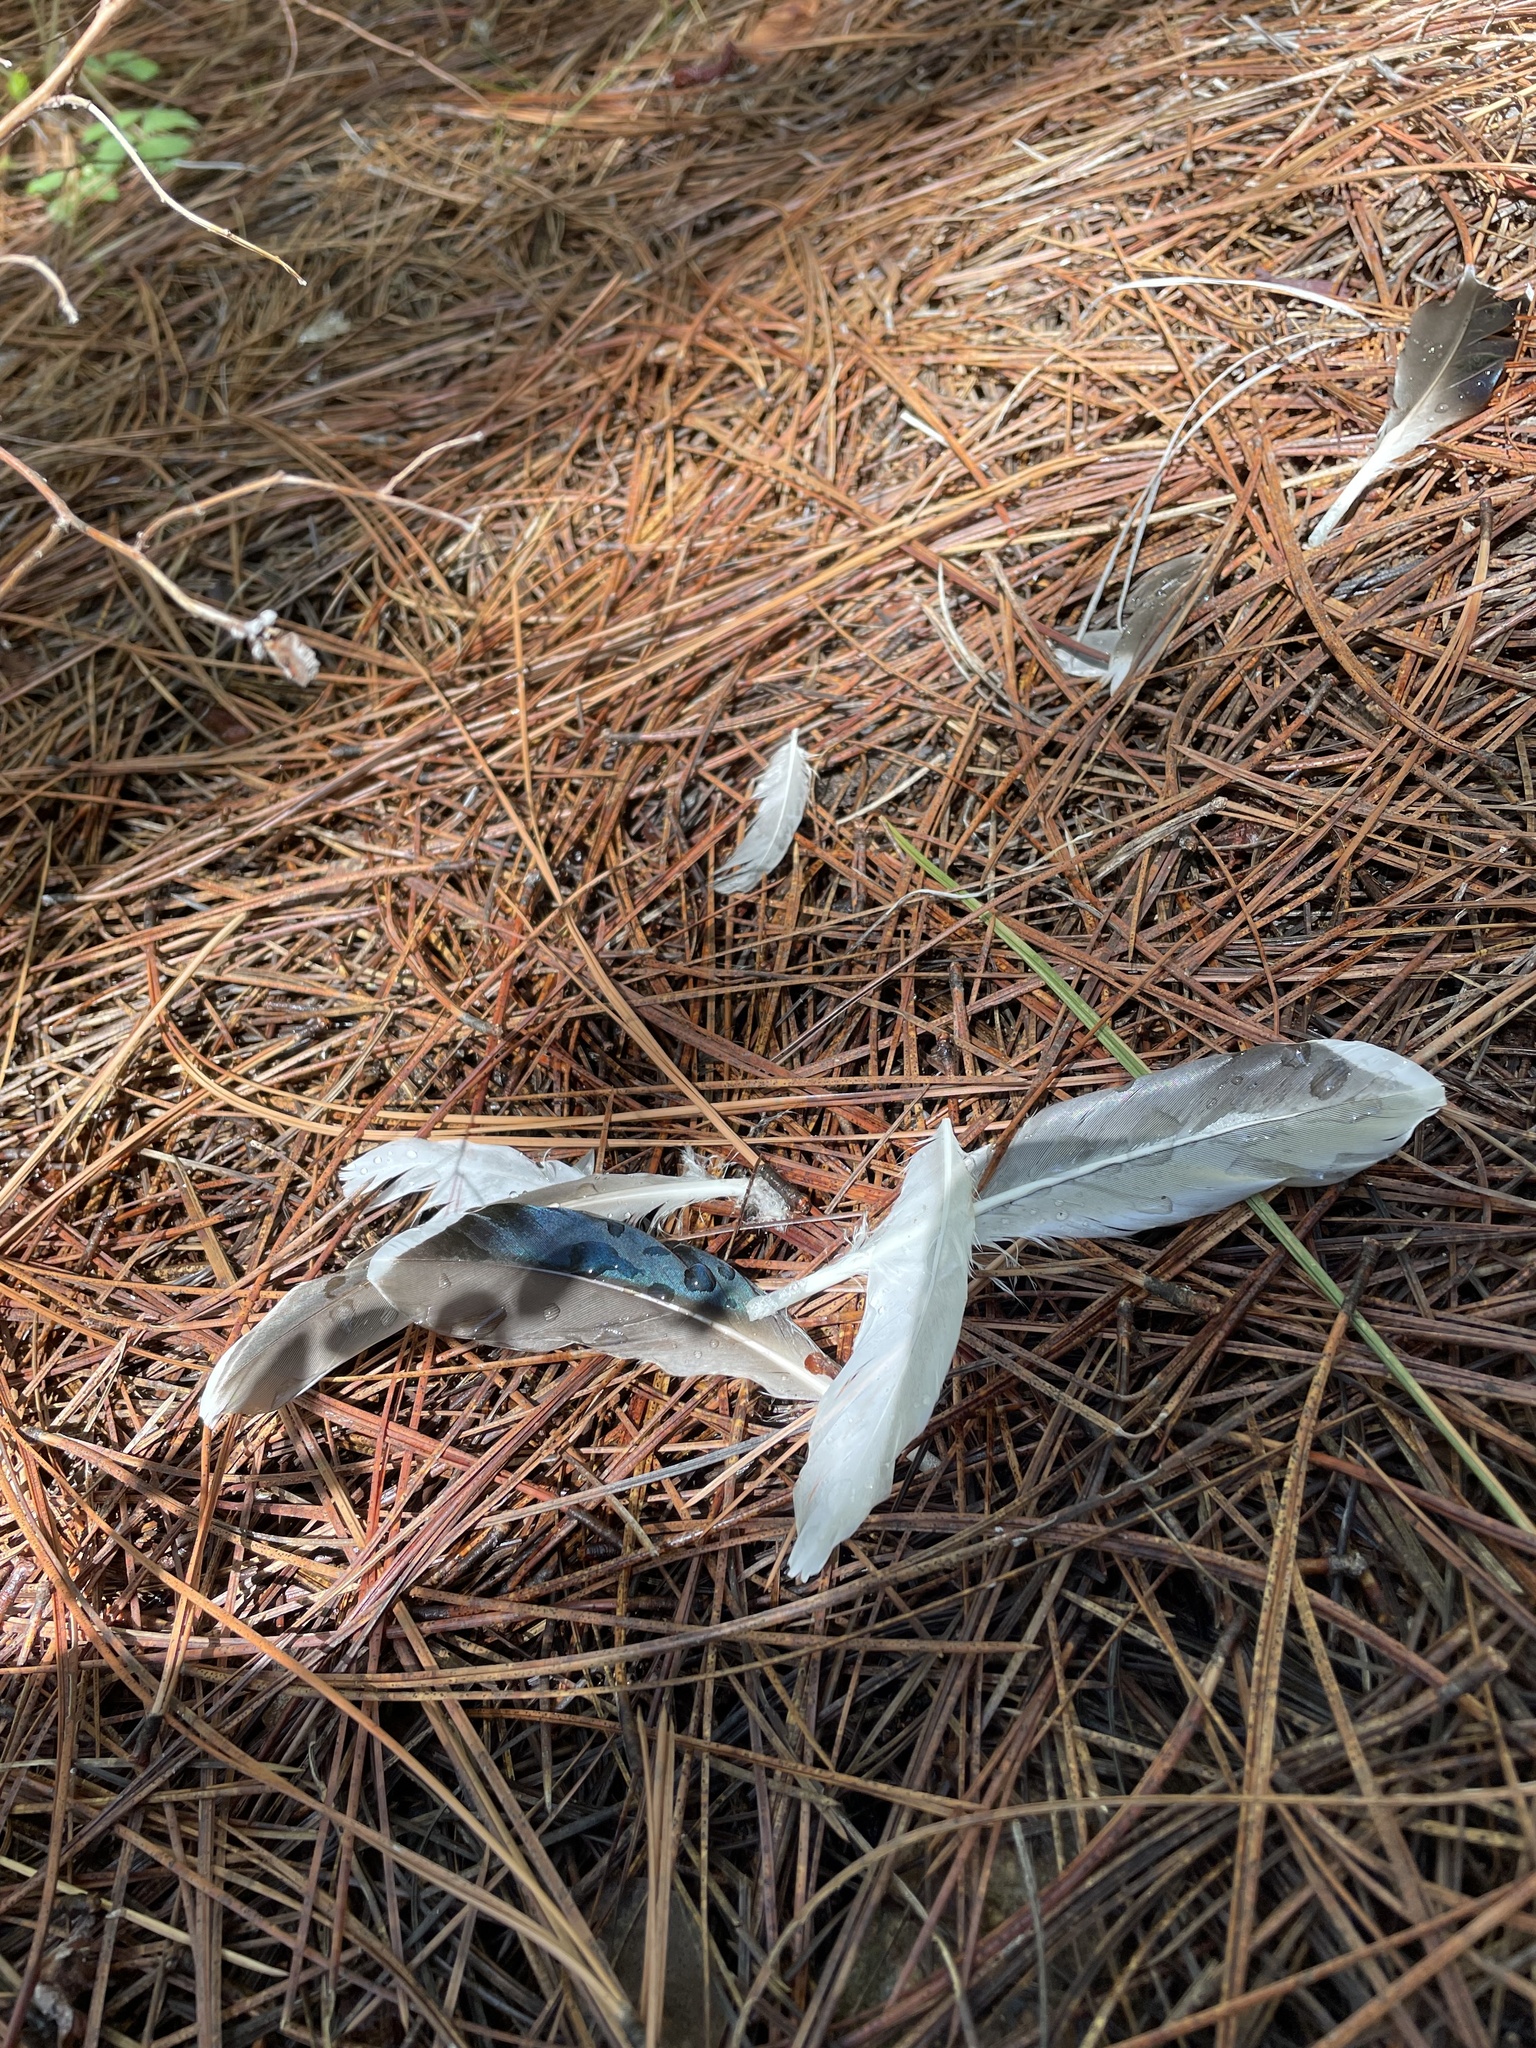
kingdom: Animalia
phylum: Chordata
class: Aves
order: Anseriformes
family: Anatidae
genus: Anas
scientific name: Anas platyrhynchos
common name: Mallard
